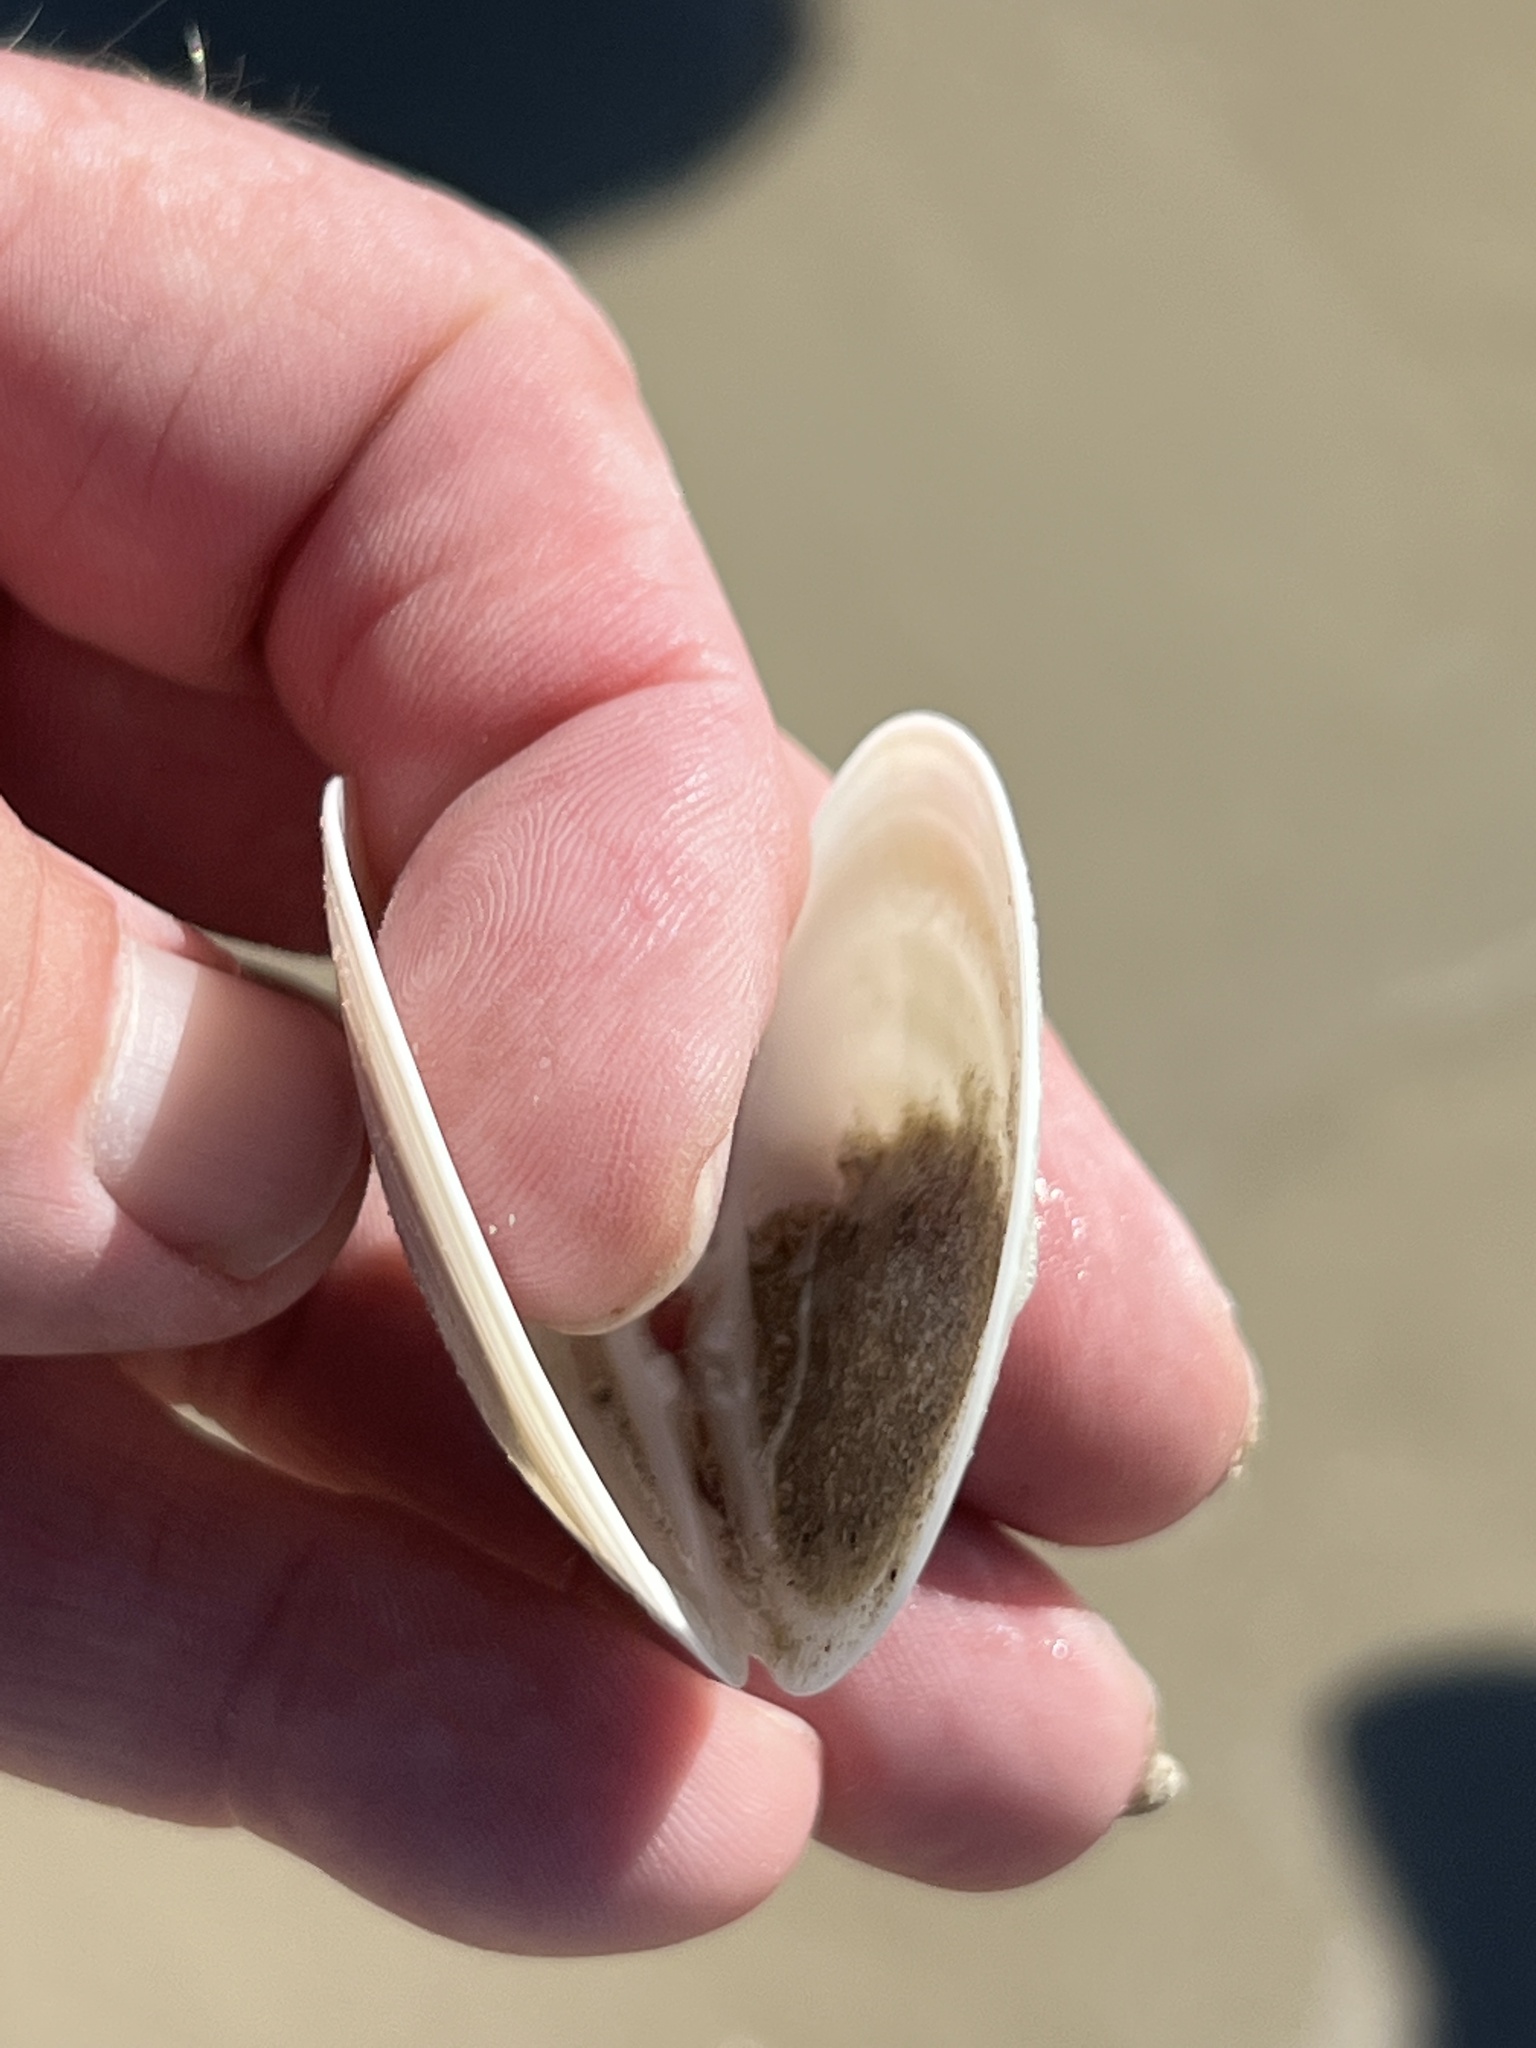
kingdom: Animalia
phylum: Mollusca
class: Bivalvia
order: Venerida
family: Veneridae
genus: Dosinia
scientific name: Dosinia discus
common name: Disk dosinia
